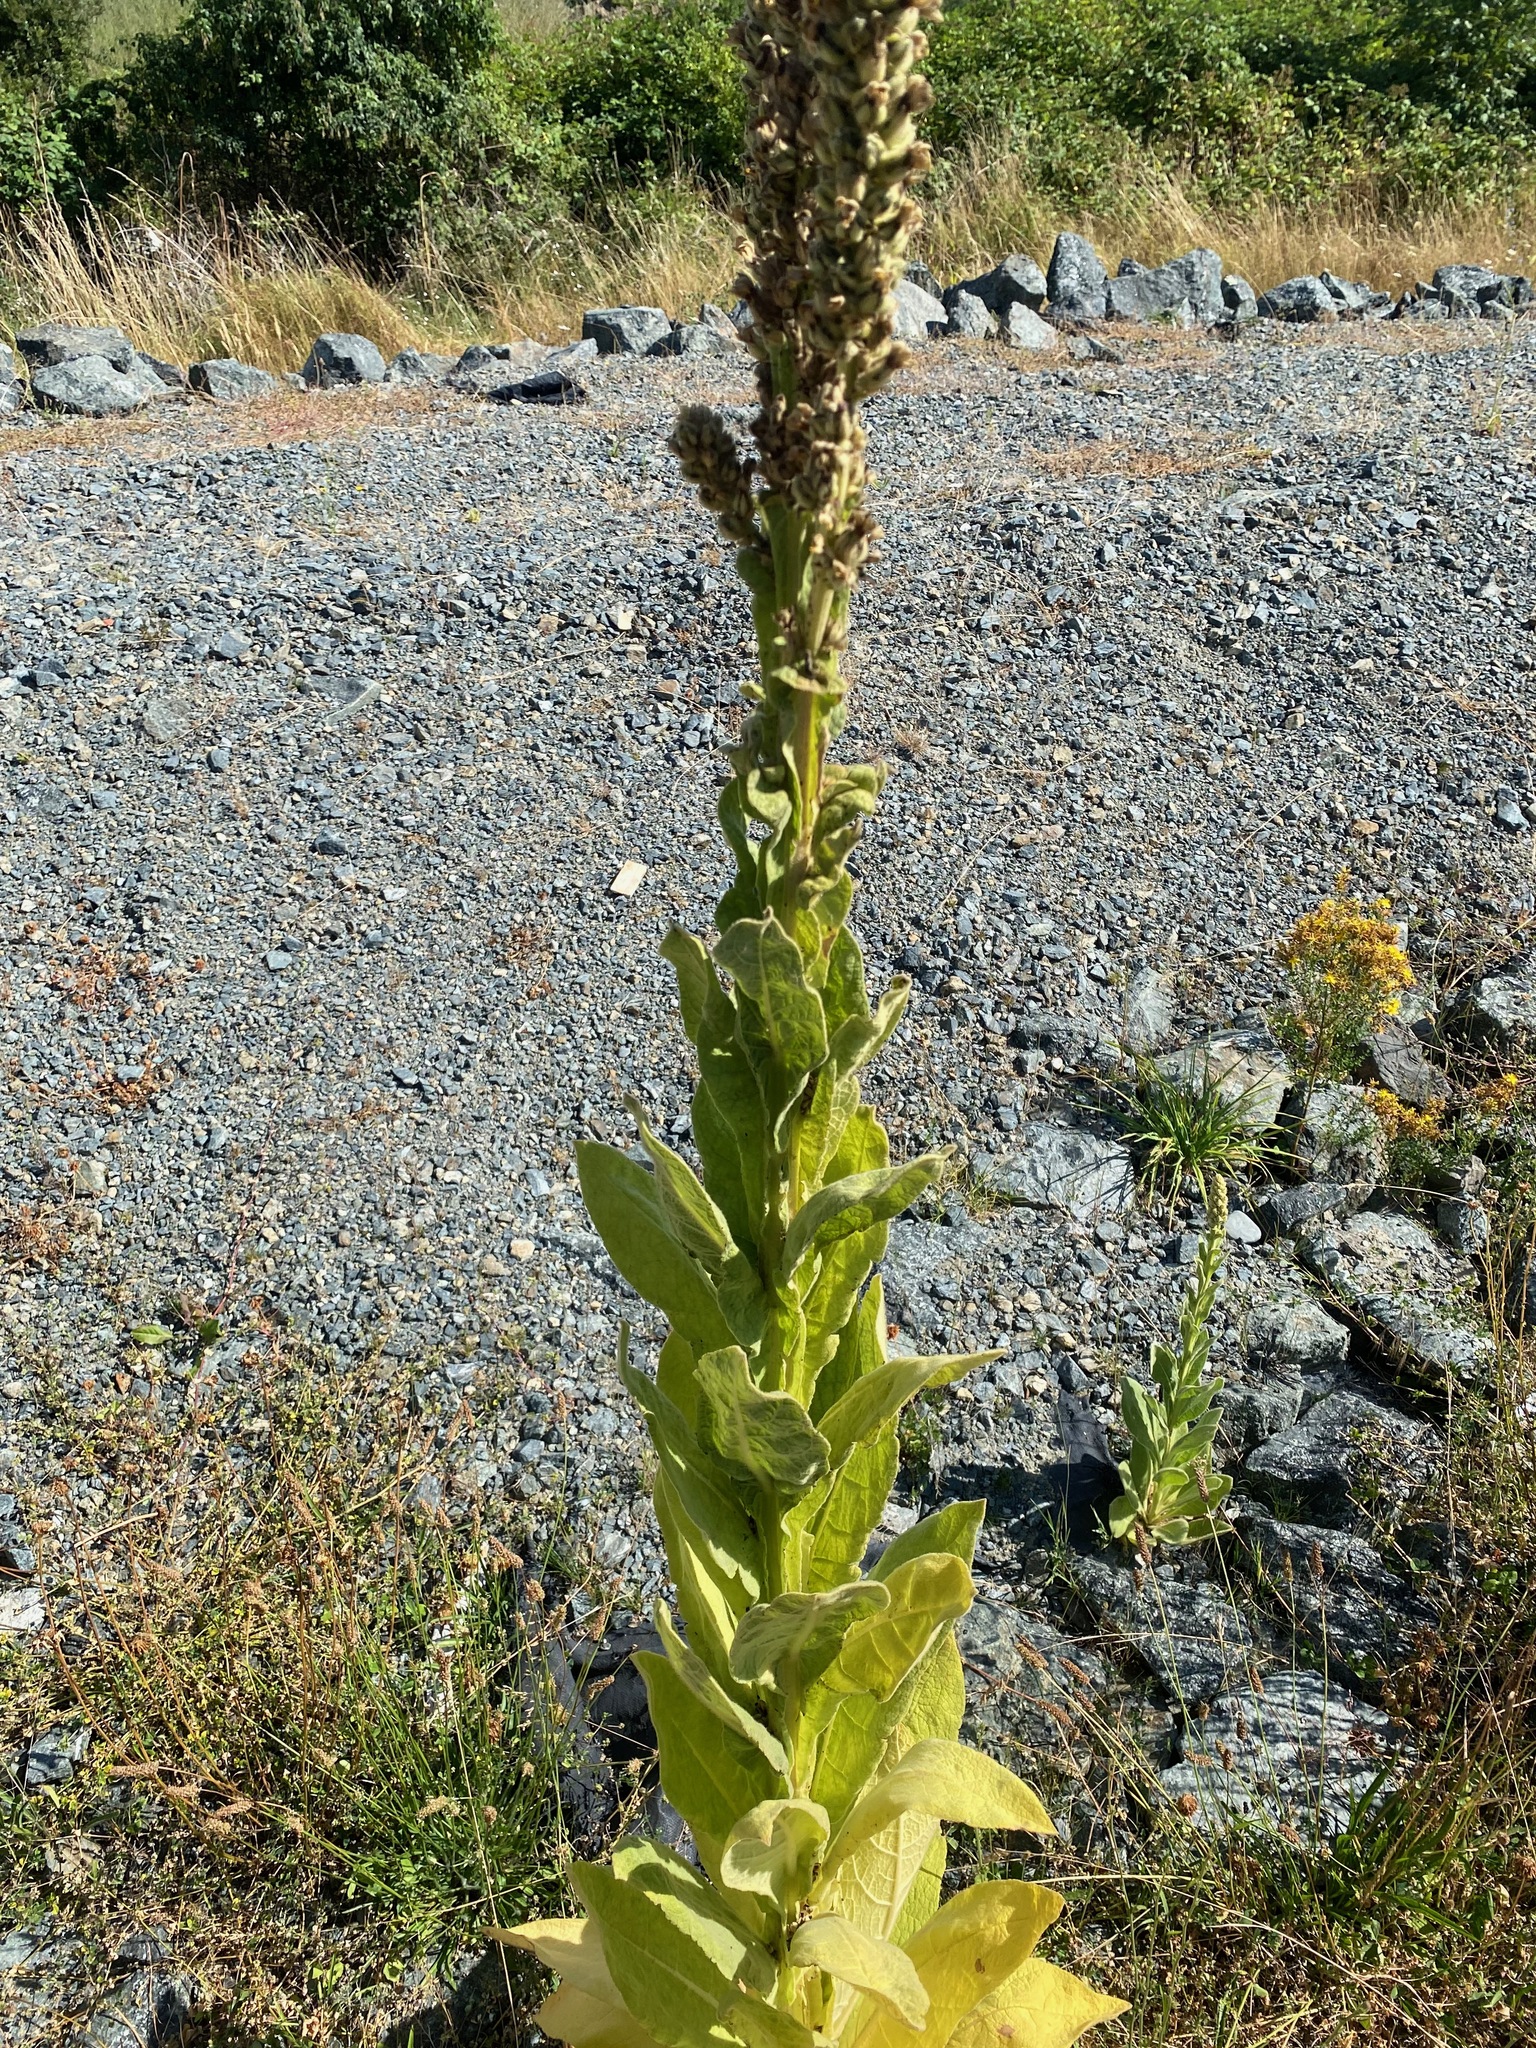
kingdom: Plantae
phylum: Tracheophyta
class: Magnoliopsida
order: Lamiales
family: Scrophulariaceae
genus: Verbascum
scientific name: Verbascum thapsus
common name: Common mullein
